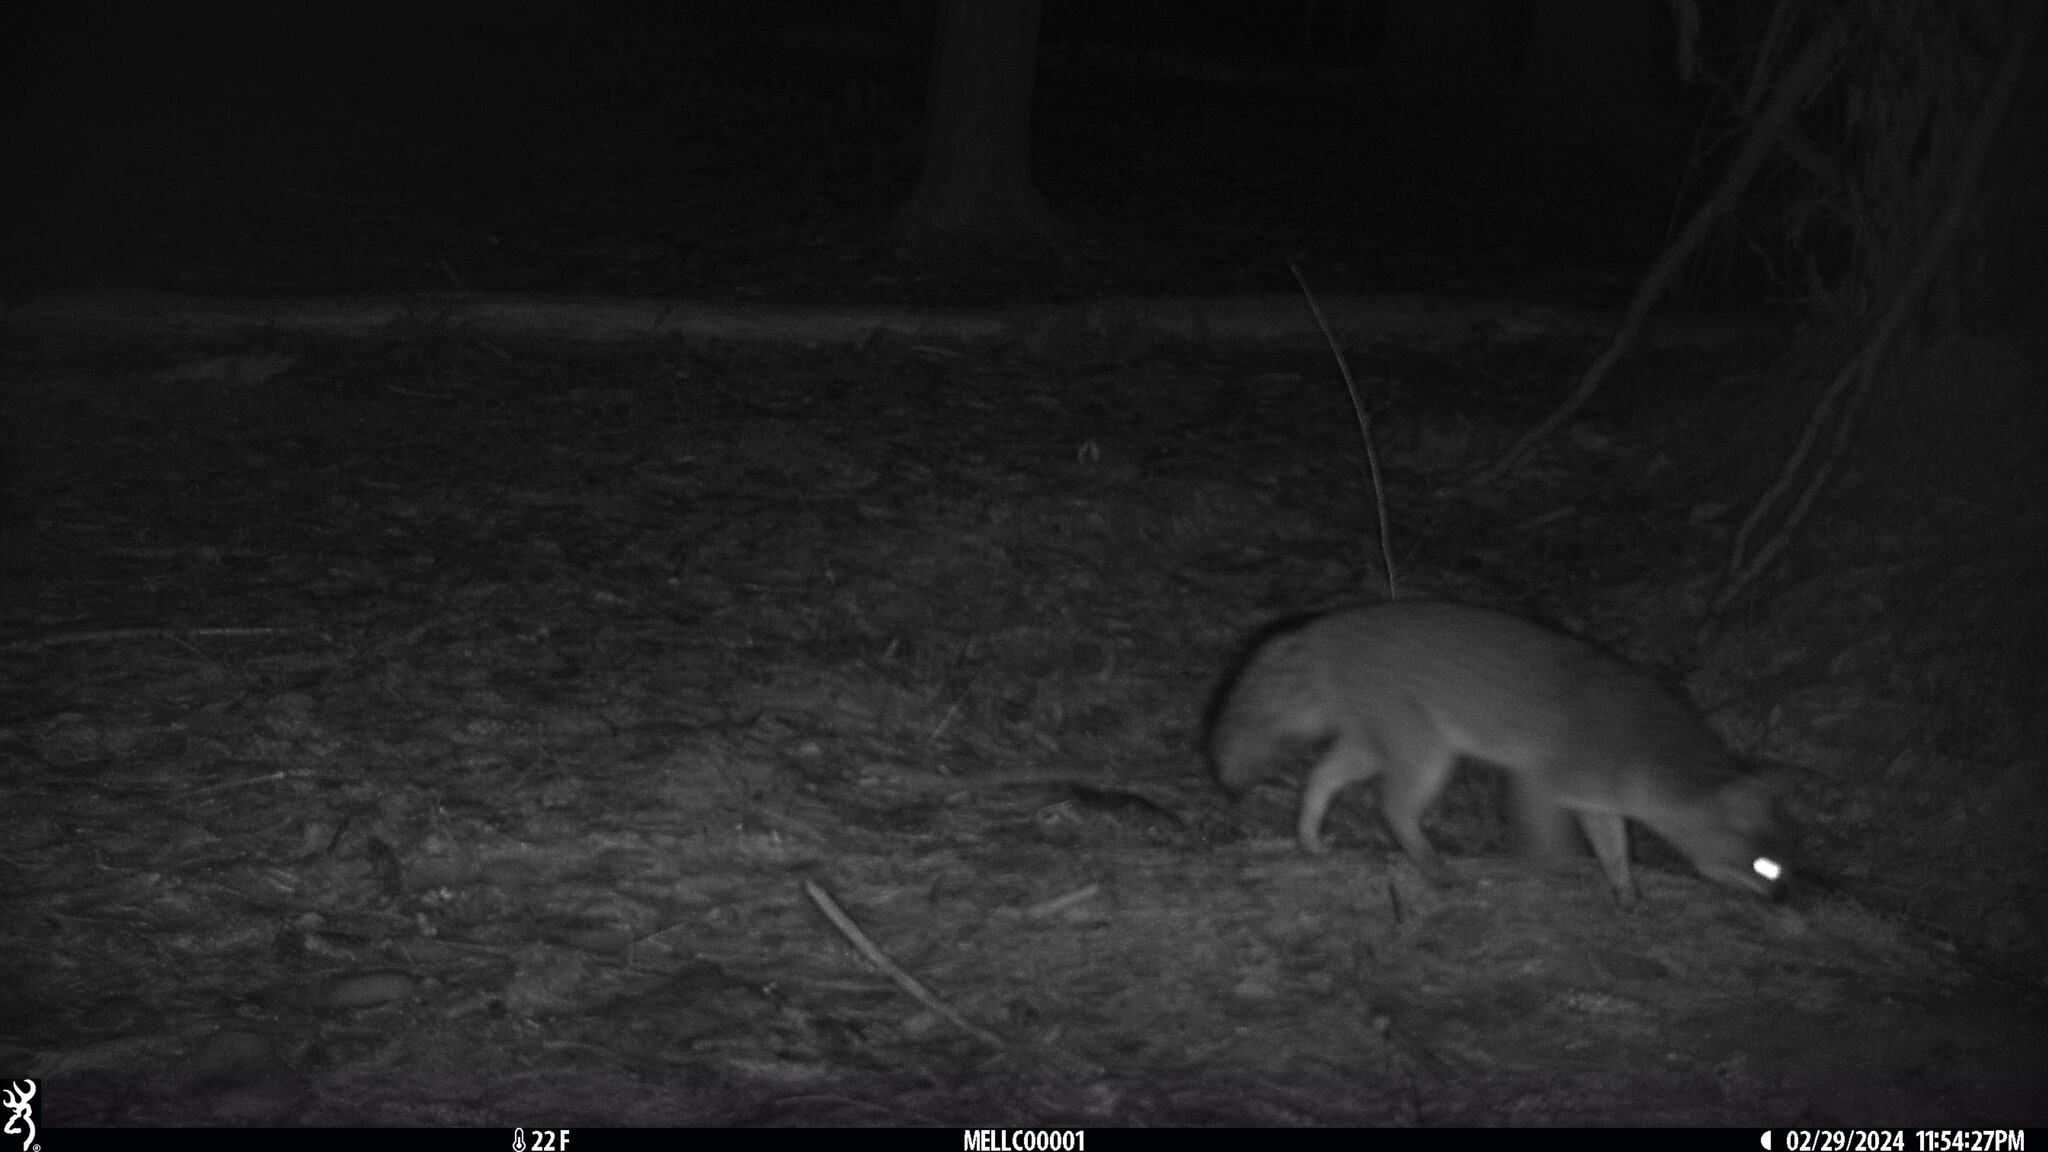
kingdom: Animalia
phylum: Chordata
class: Mammalia
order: Carnivora
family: Canidae
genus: Urocyon
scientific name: Urocyon cinereoargenteus
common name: Gray fox
